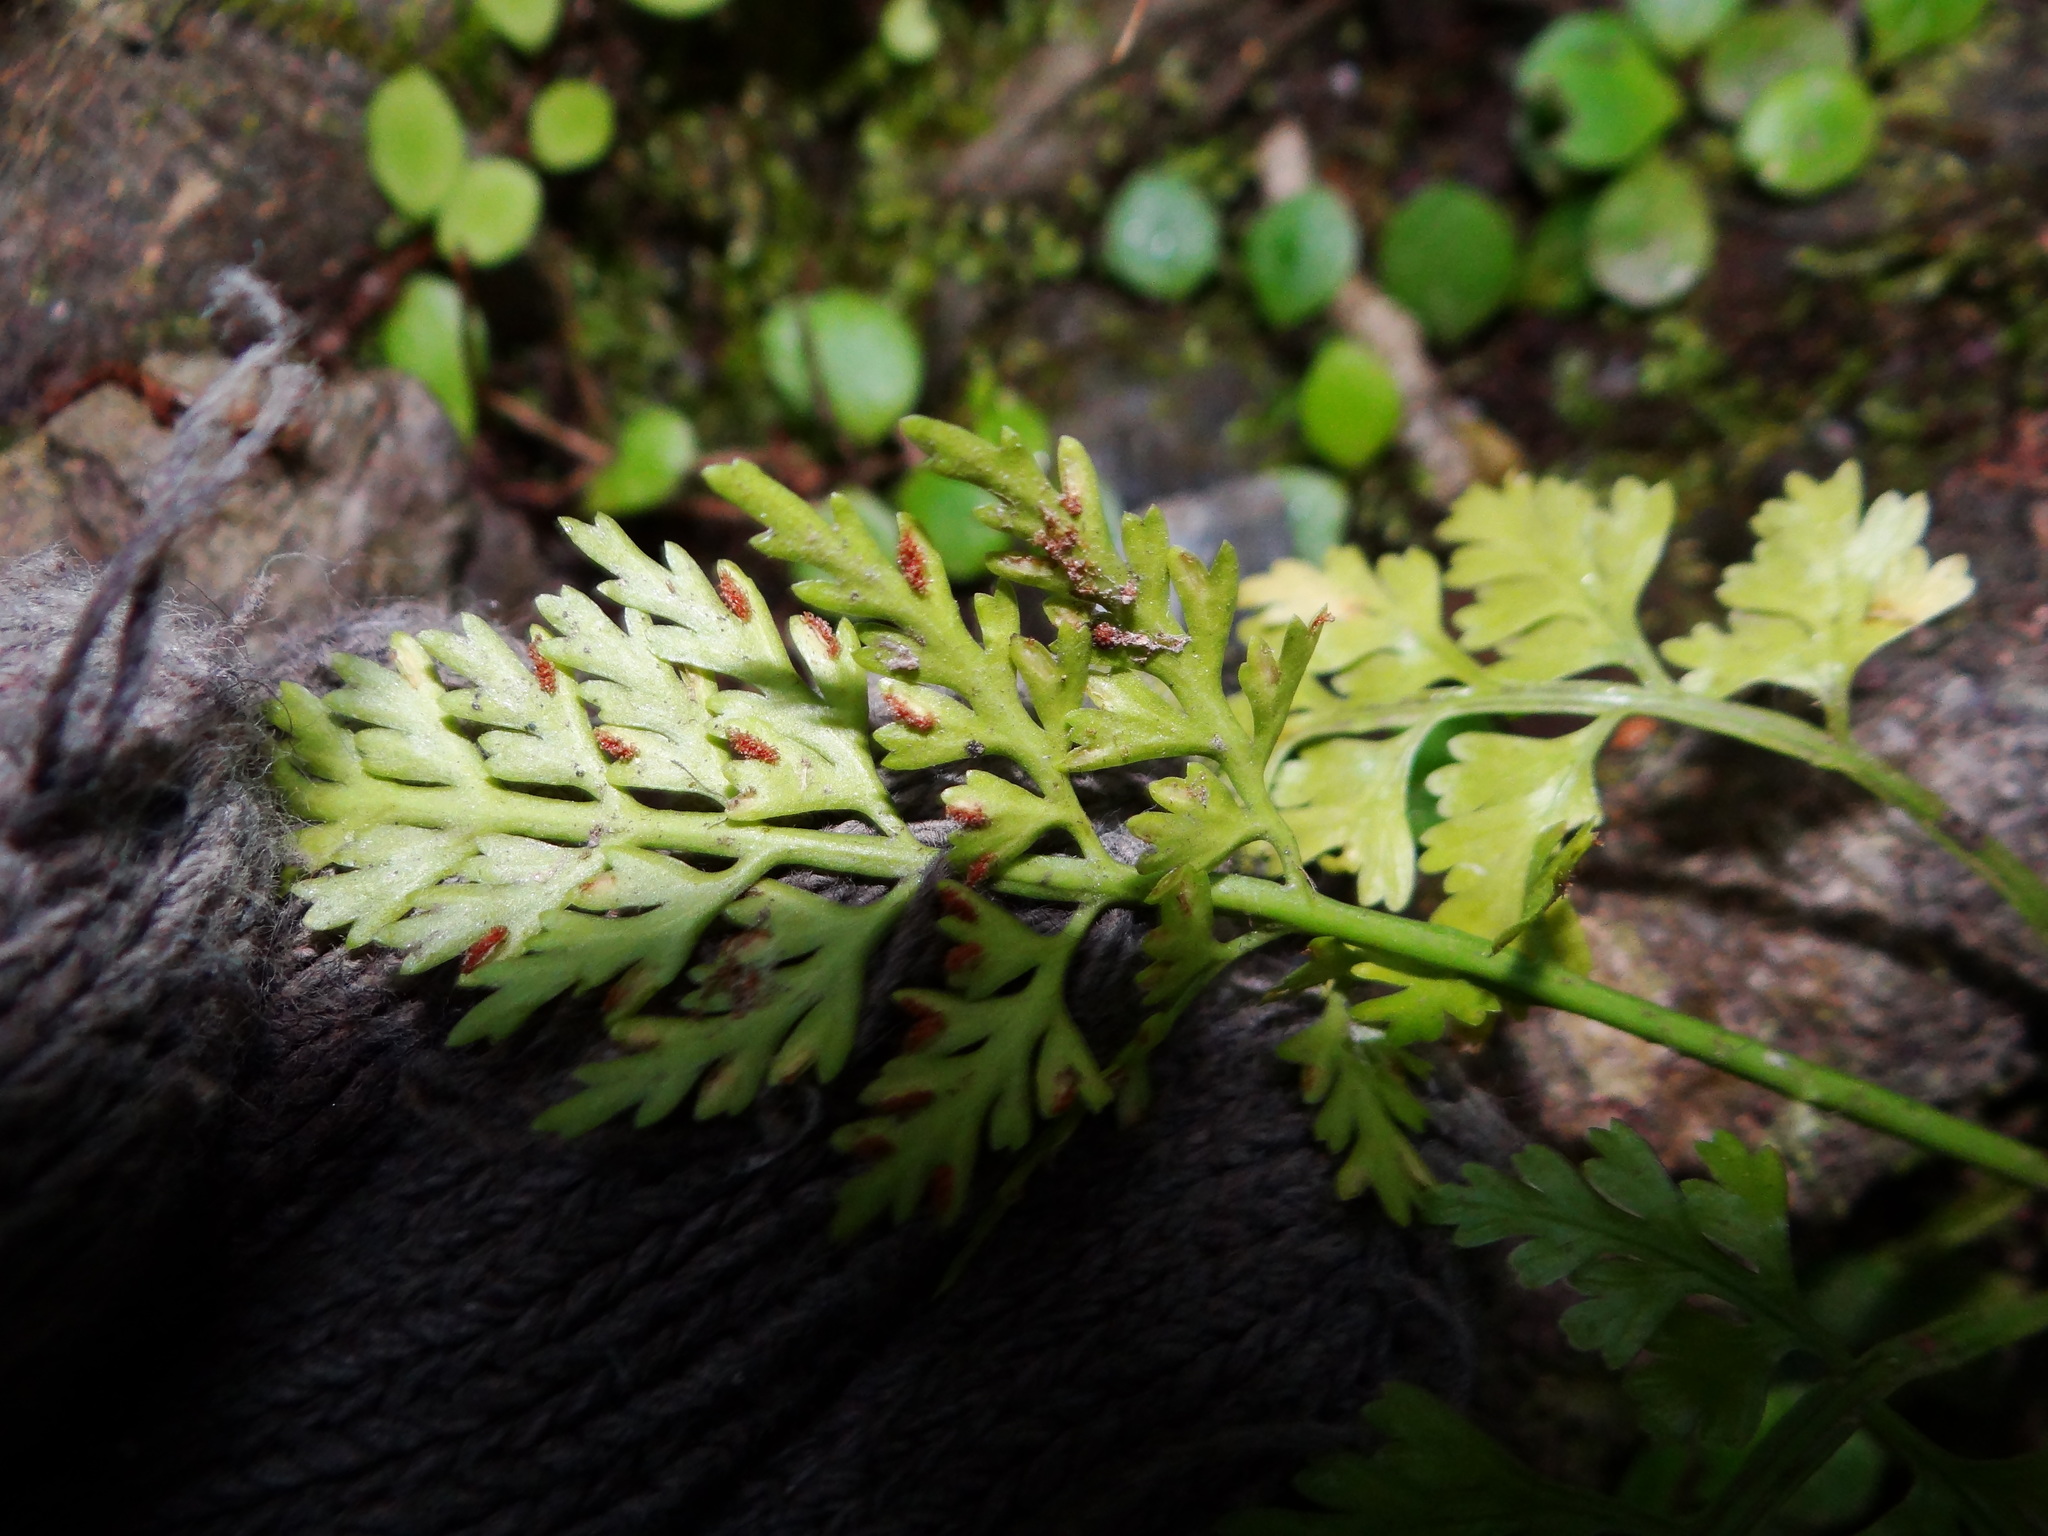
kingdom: Plantae
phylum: Tracheophyta
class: Polypodiopsida
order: Polypodiales
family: Aspleniaceae
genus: Asplenium
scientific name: Asplenium ritoense
